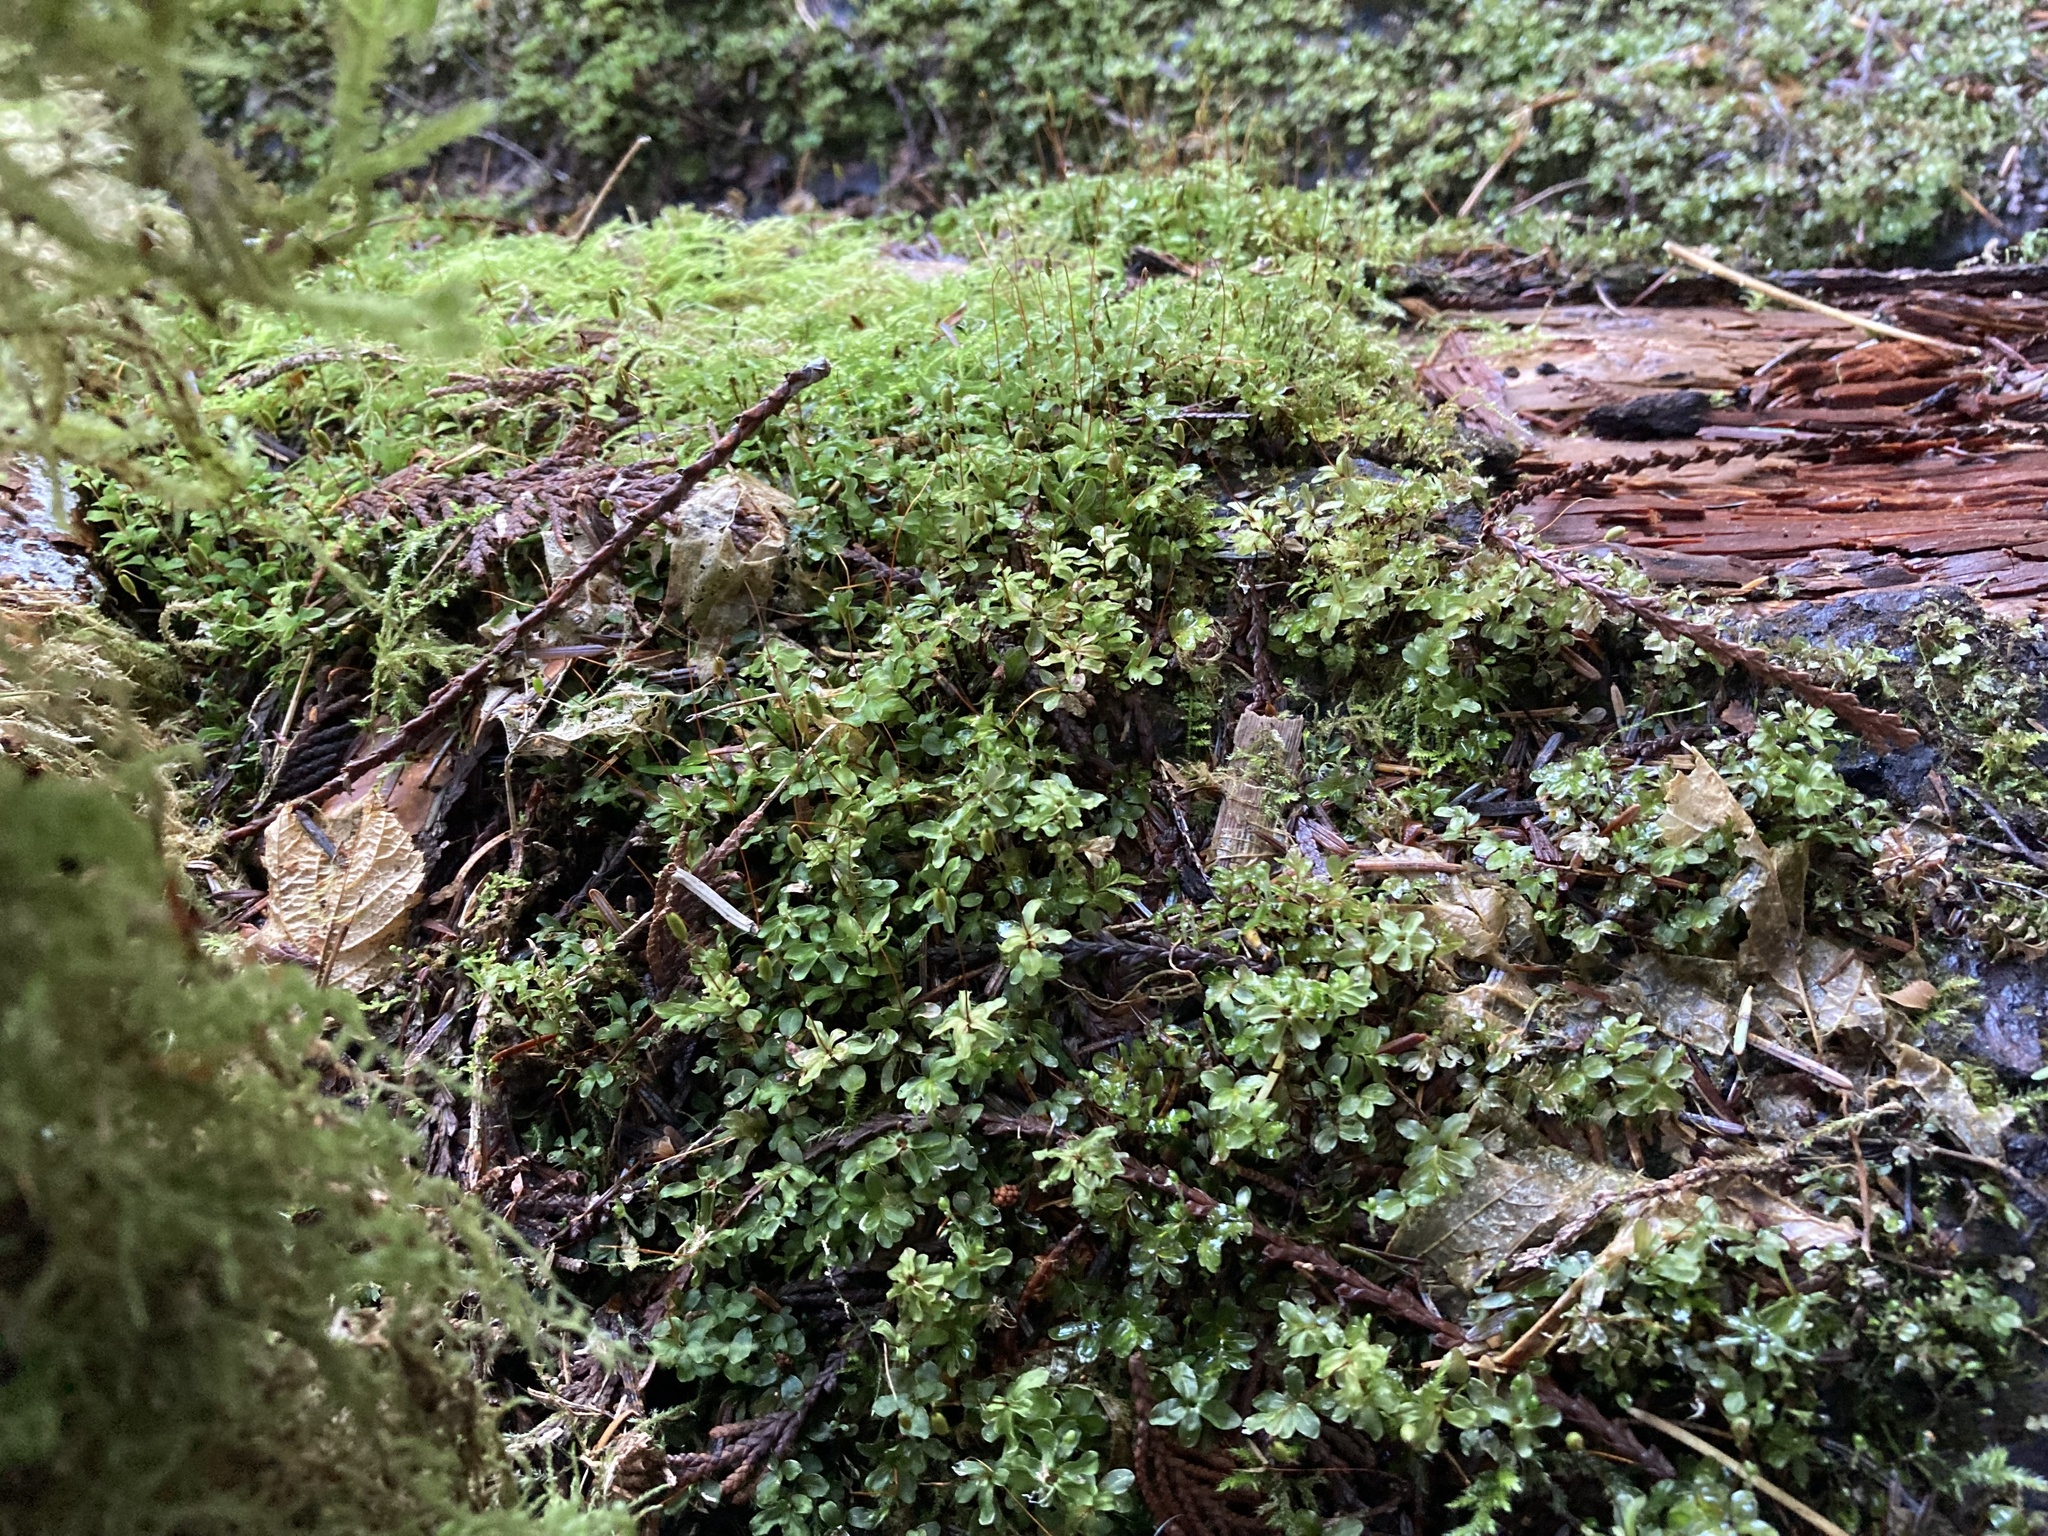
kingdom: Plantae
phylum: Bryophyta
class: Bryopsida
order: Bryales
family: Mniaceae
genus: Rhizomnium
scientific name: Rhizomnium glabrescens
